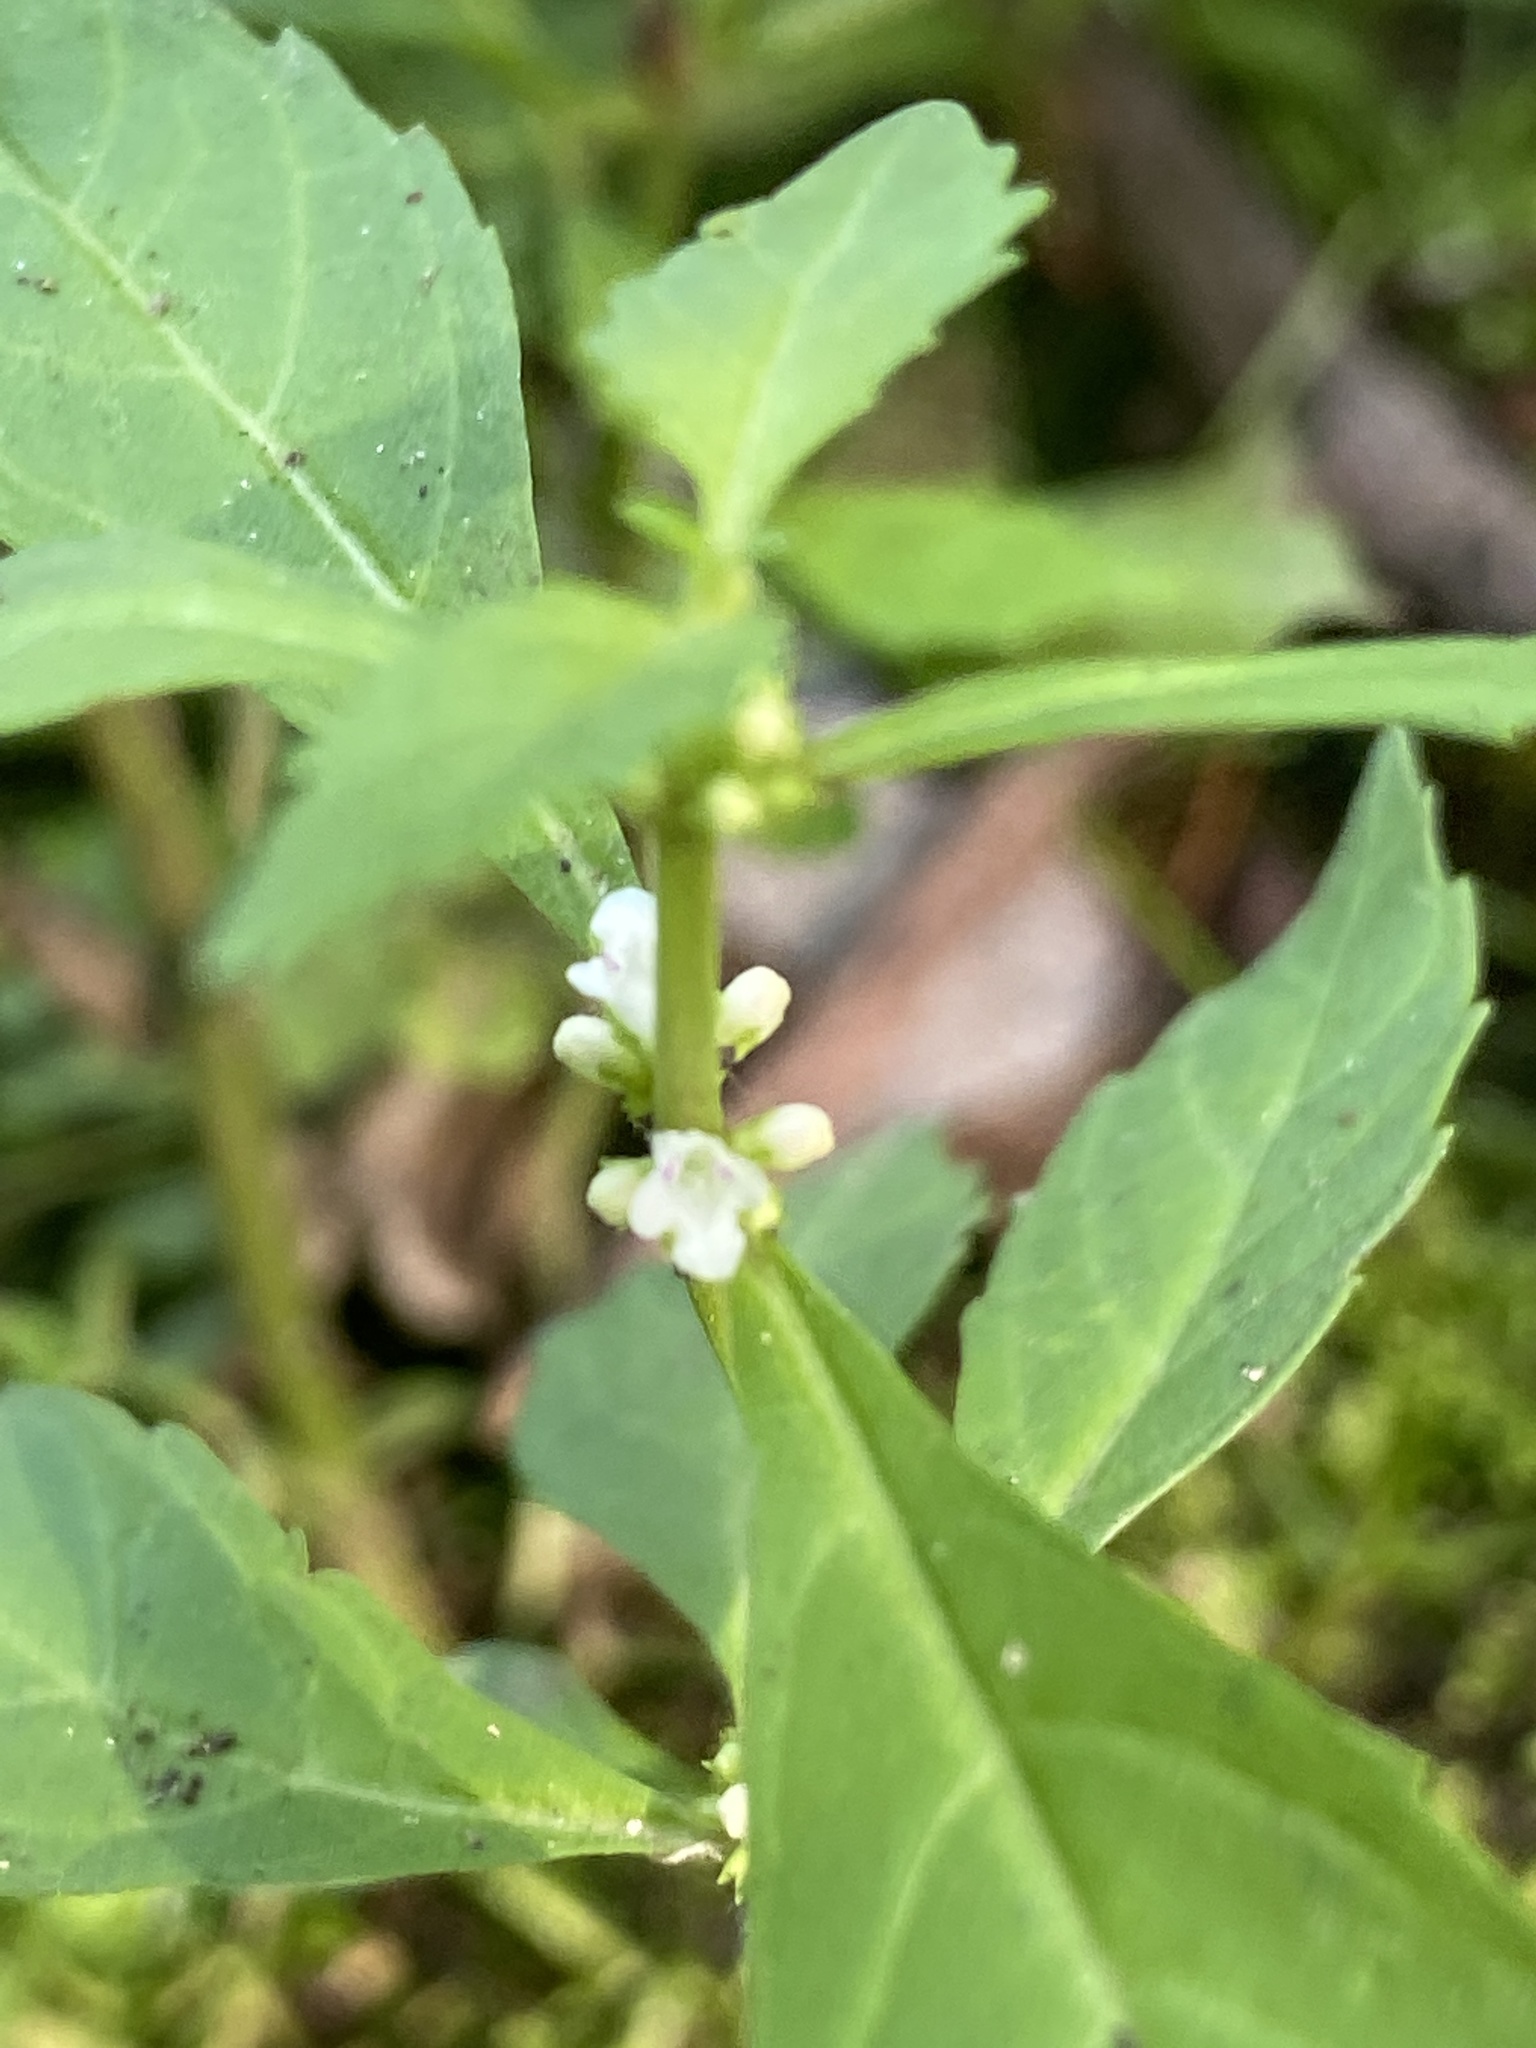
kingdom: Plantae
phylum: Tracheophyta
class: Magnoliopsida
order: Lamiales
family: Lamiaceae
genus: Lycopus
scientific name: Lycopus uniflorus
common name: Northern bugleweed
